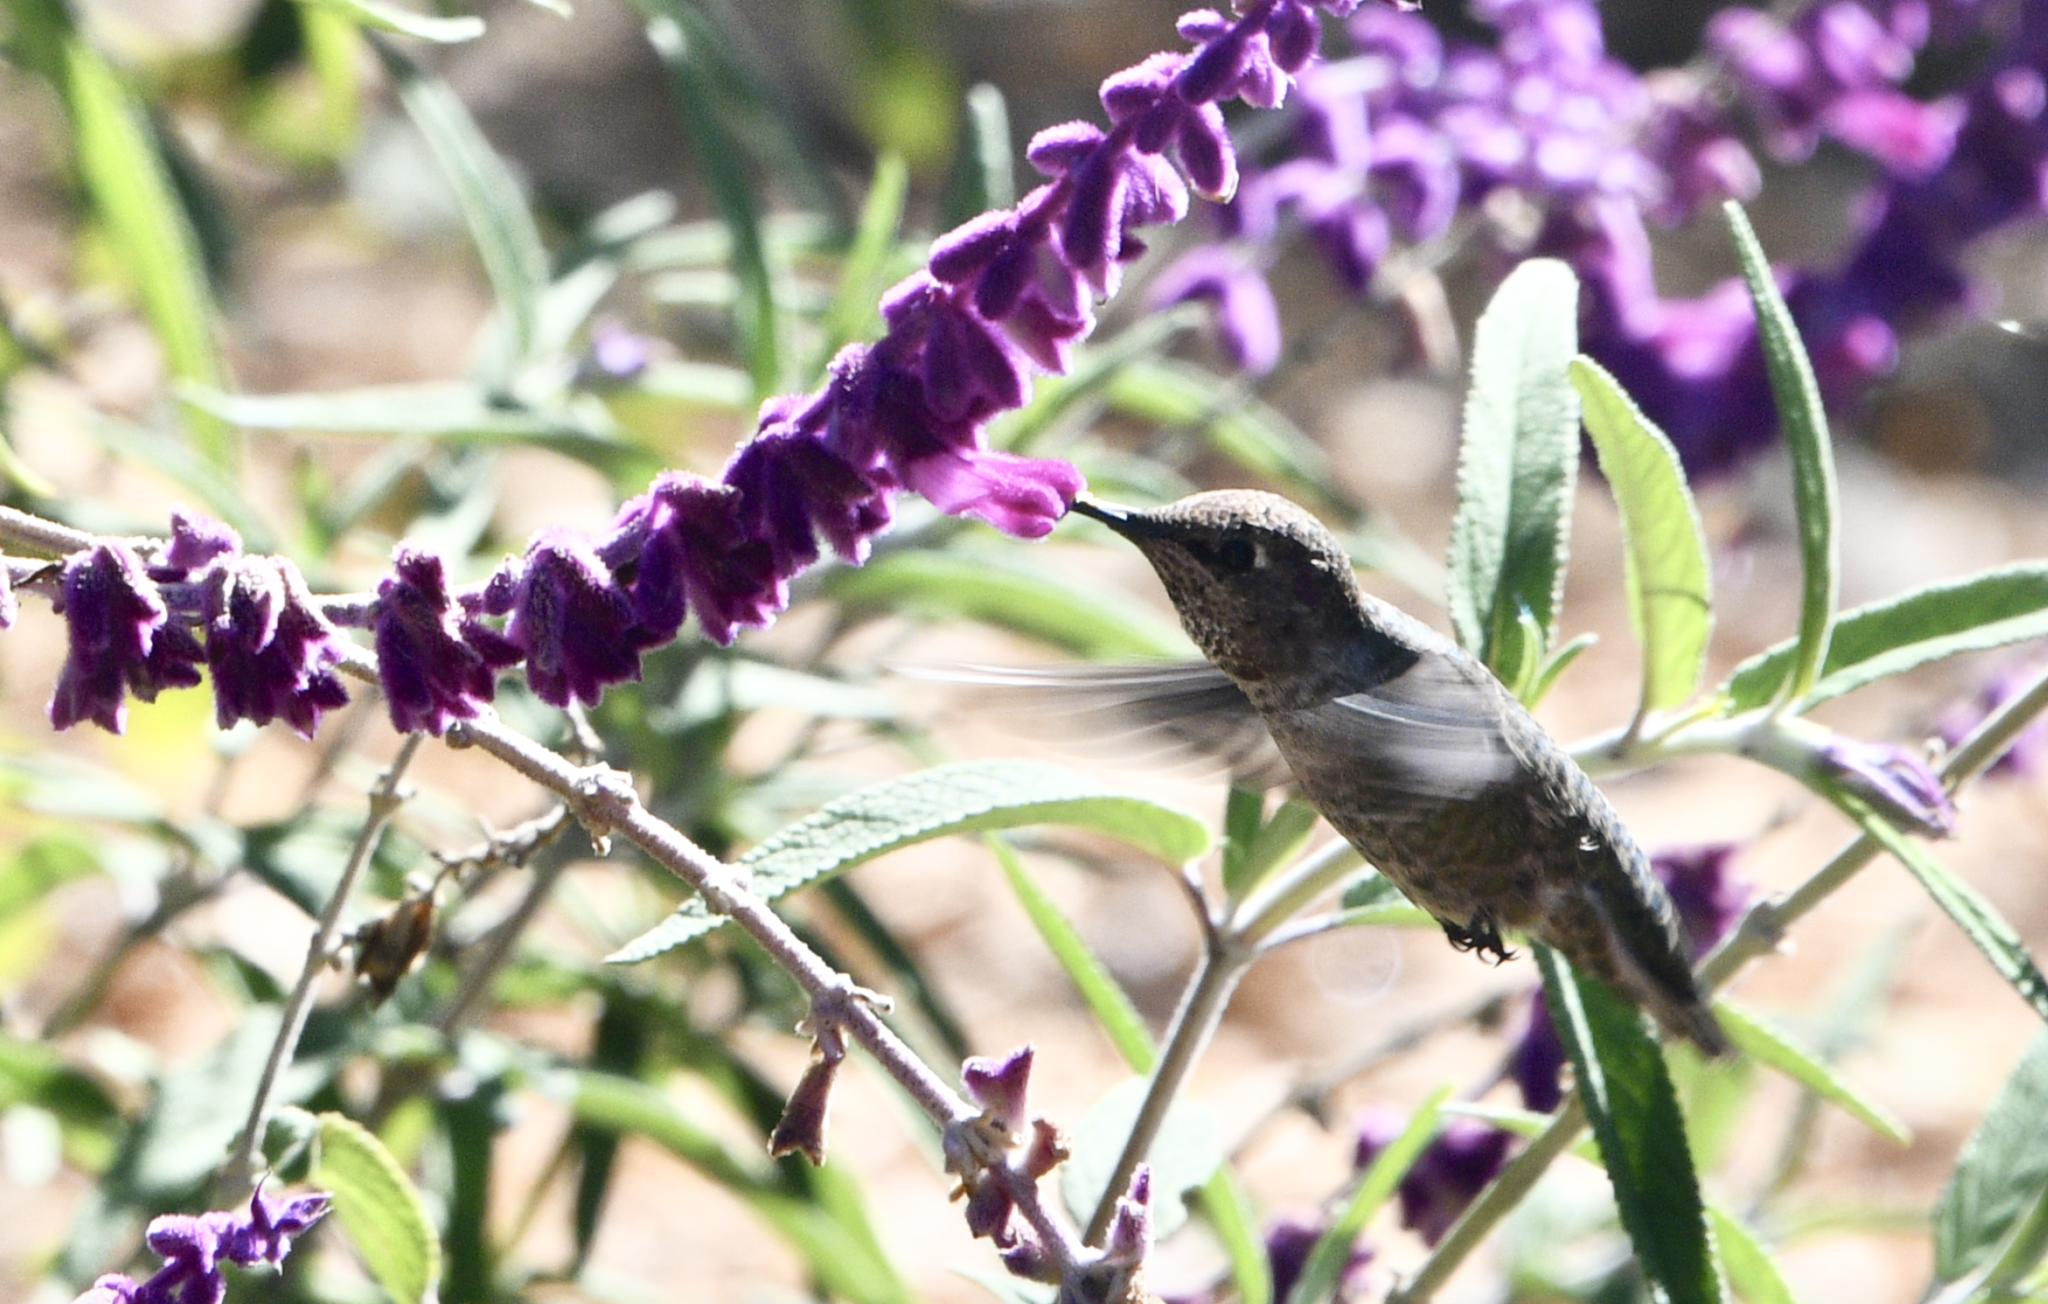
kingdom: Animalia
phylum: Chordata
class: Aves
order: Apodiformes
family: Trochilidae
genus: Calypte
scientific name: Calypte anna
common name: Anna's hummingbird
